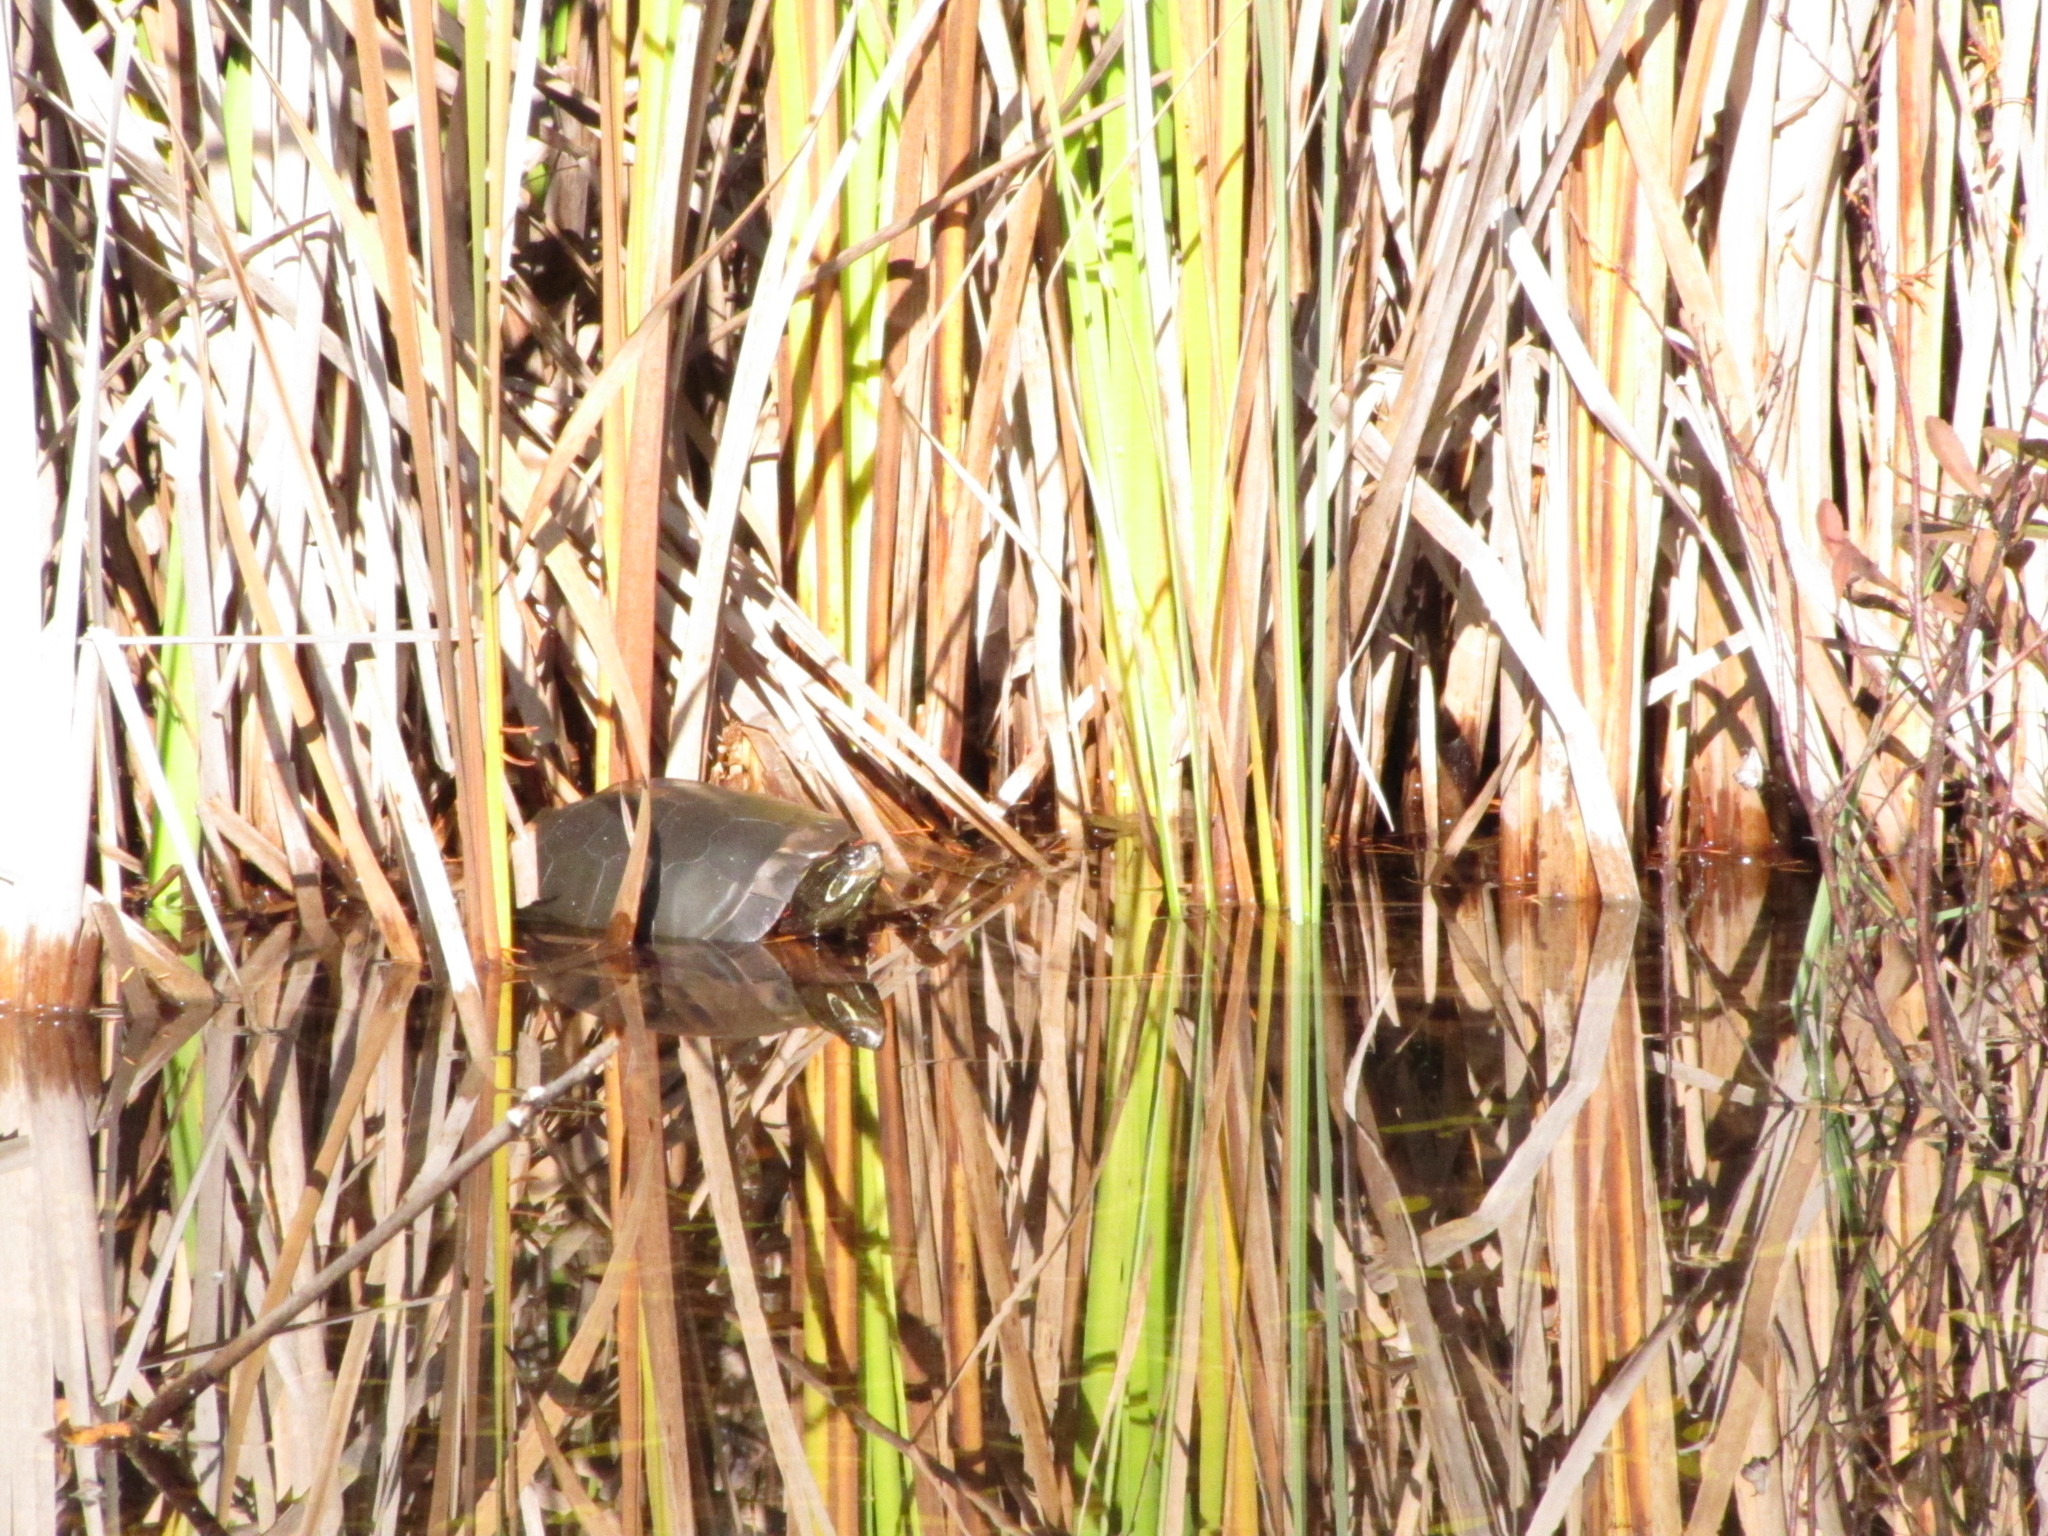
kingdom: Animalia
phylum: Chordata
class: Testudines
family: Emydidae
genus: Chrysemys
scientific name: Chrysemys picta
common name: Painted turtle
